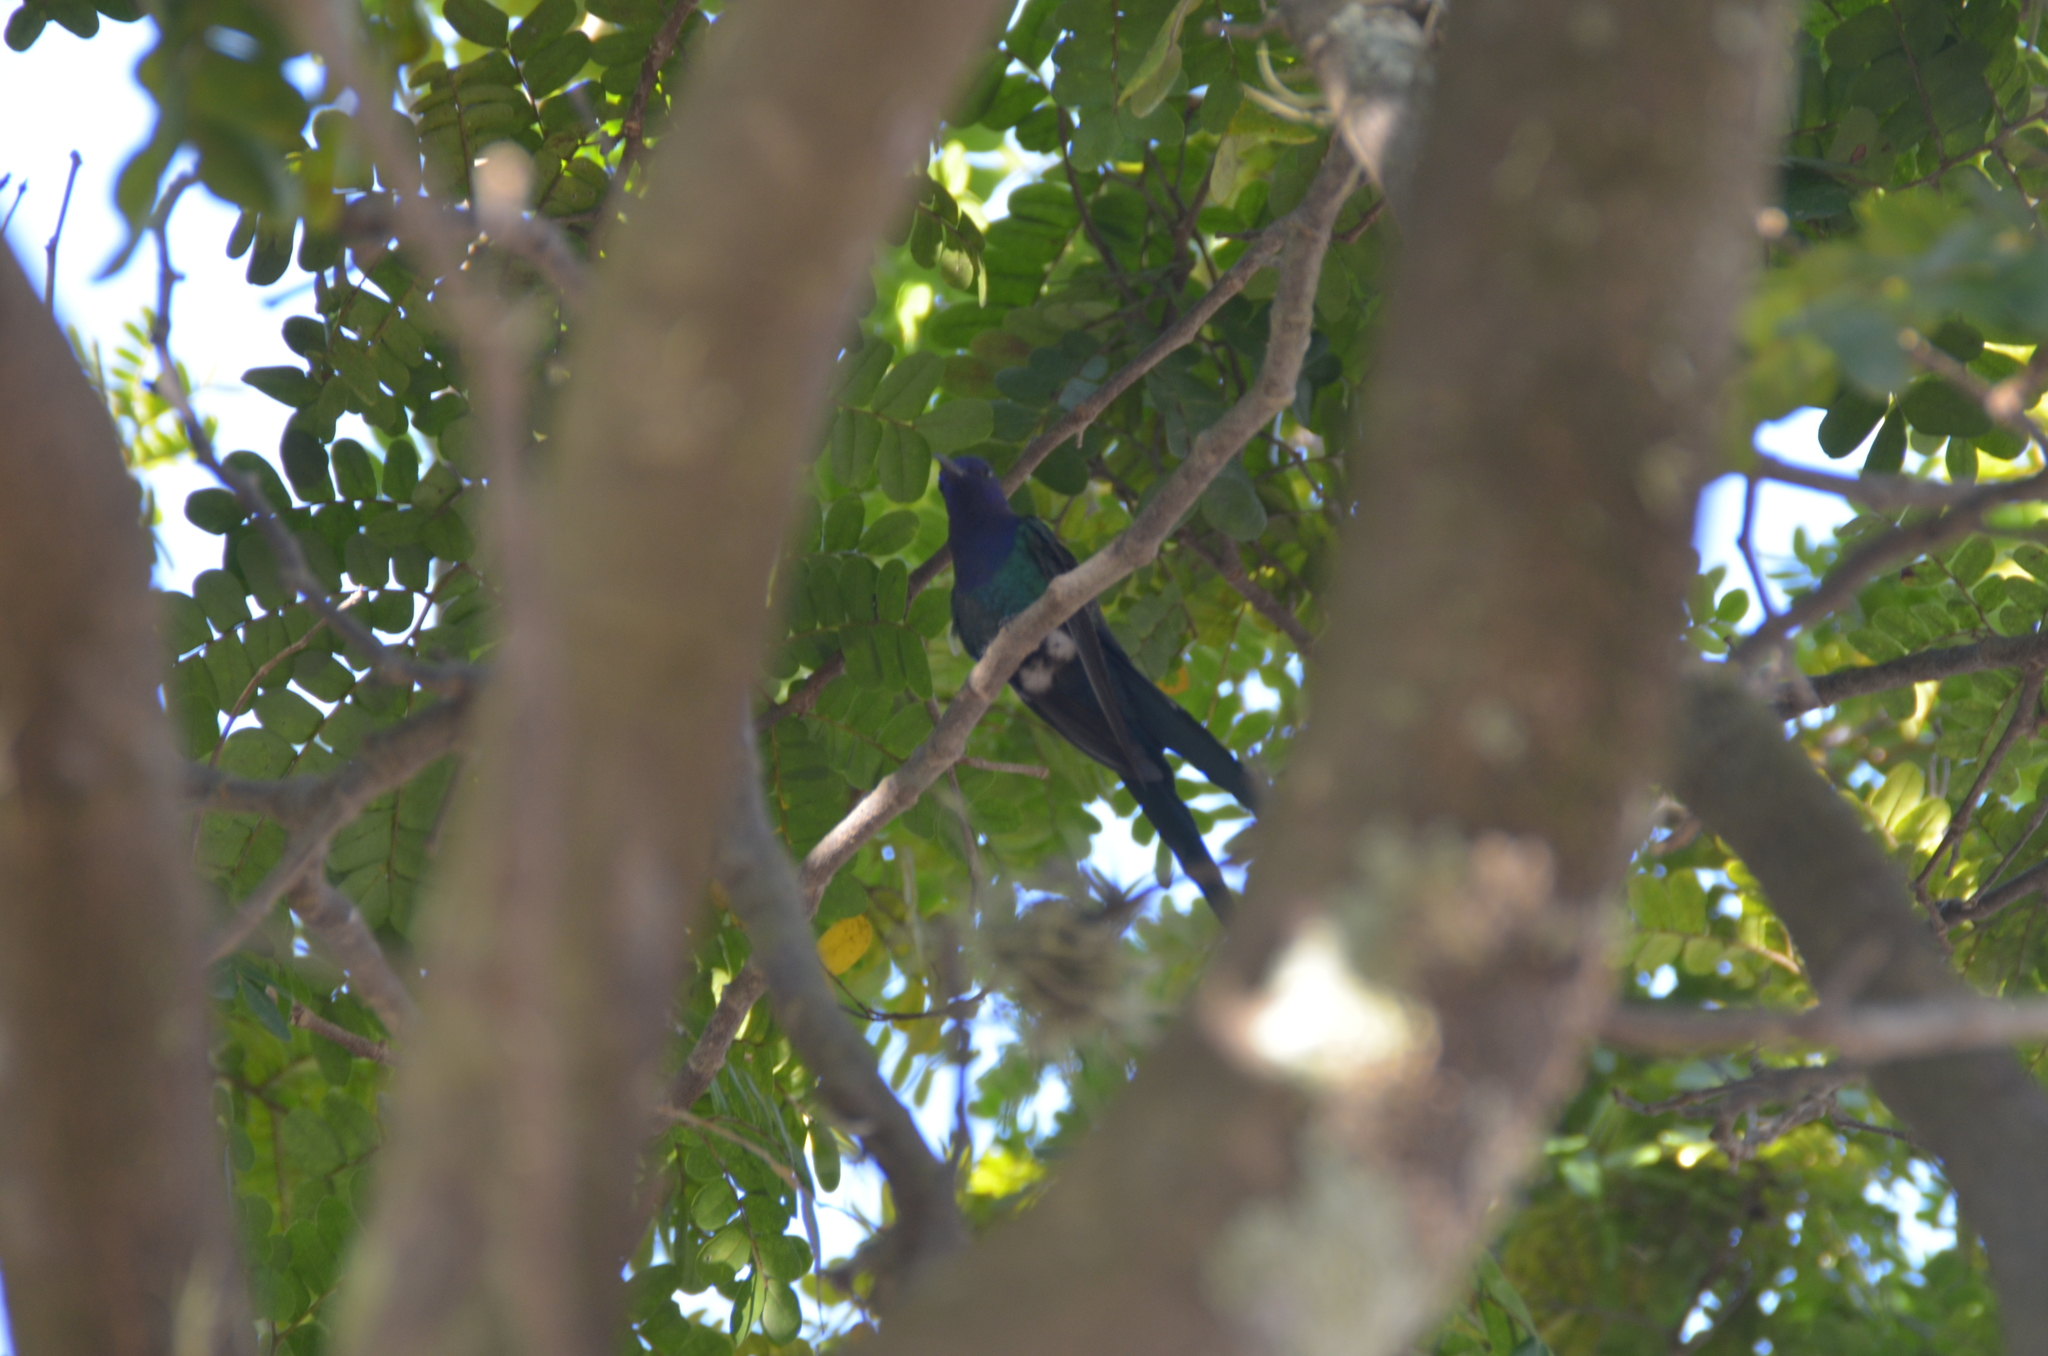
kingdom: Animalia
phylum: Chordata
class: Aves
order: Apodiformes
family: Trochilidae
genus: Eupetomena
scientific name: Eupetomena macroura
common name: Swallow-tailed hummingbird
